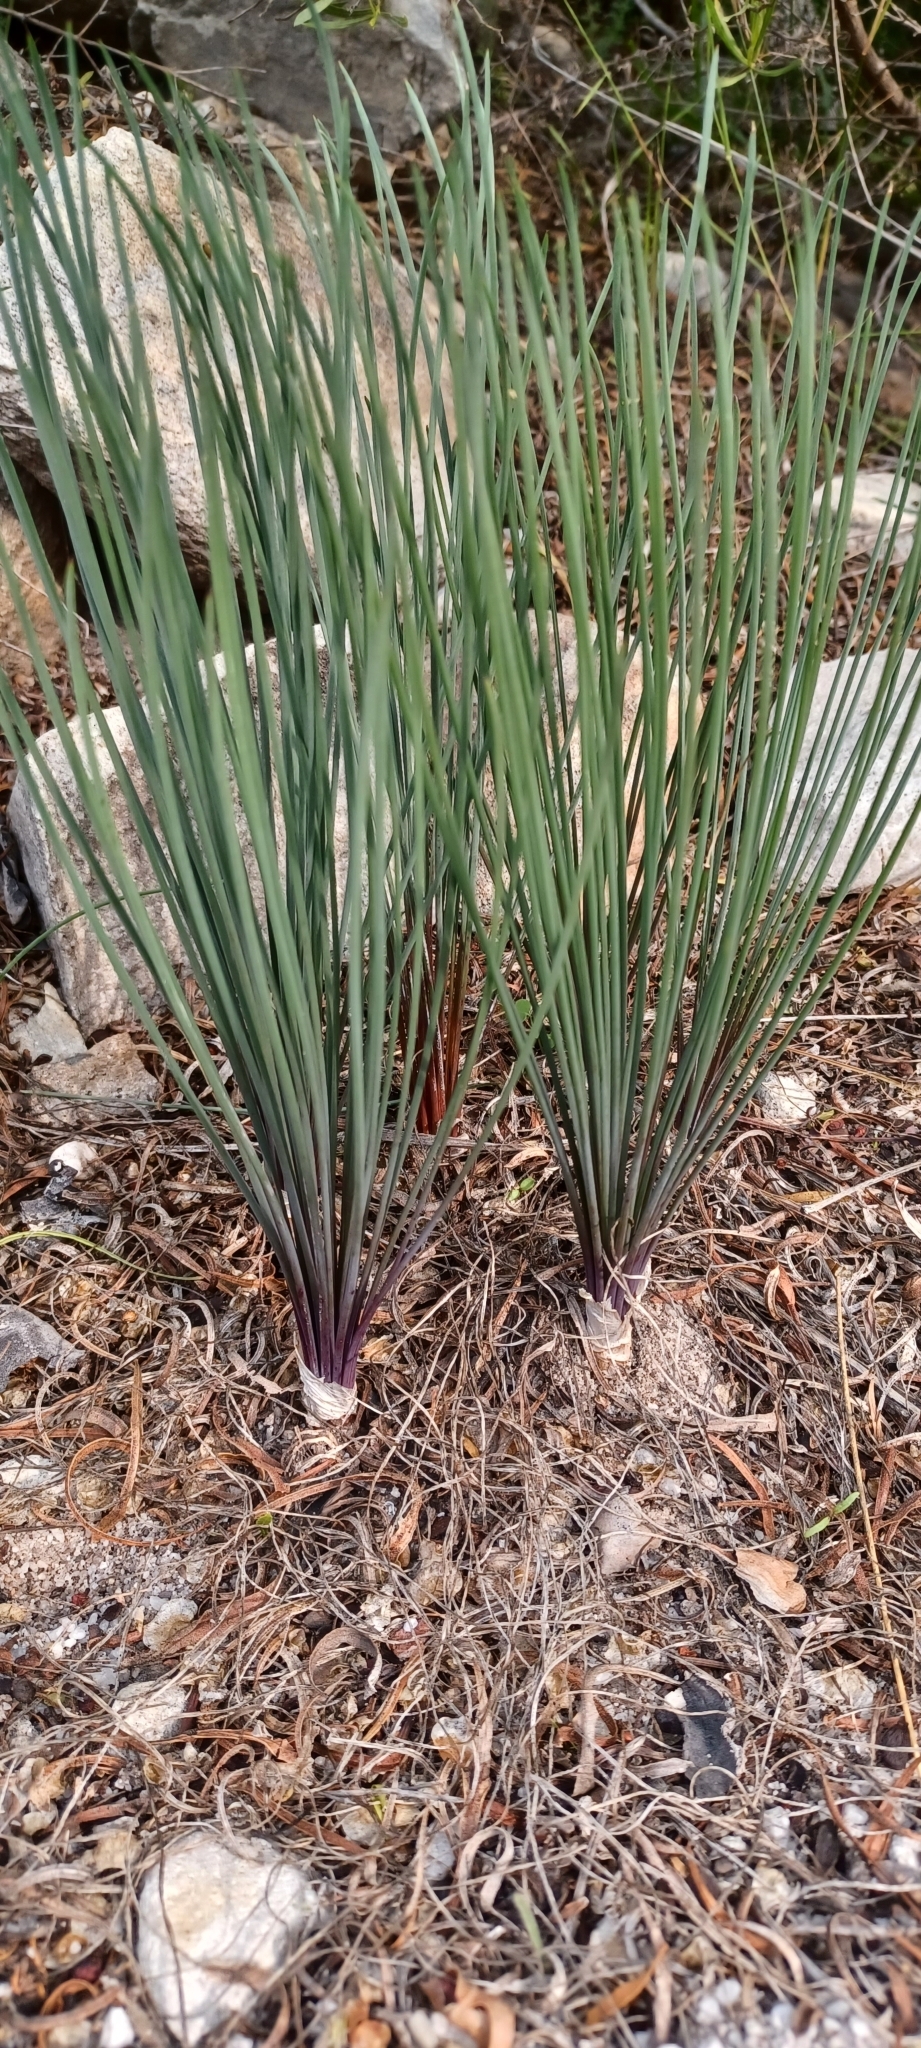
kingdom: Plantae
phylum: Tracheophyta
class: Liliopsida
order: Asparagales
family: Asparagaceae
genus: Drimia
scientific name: Drimia exuviata
